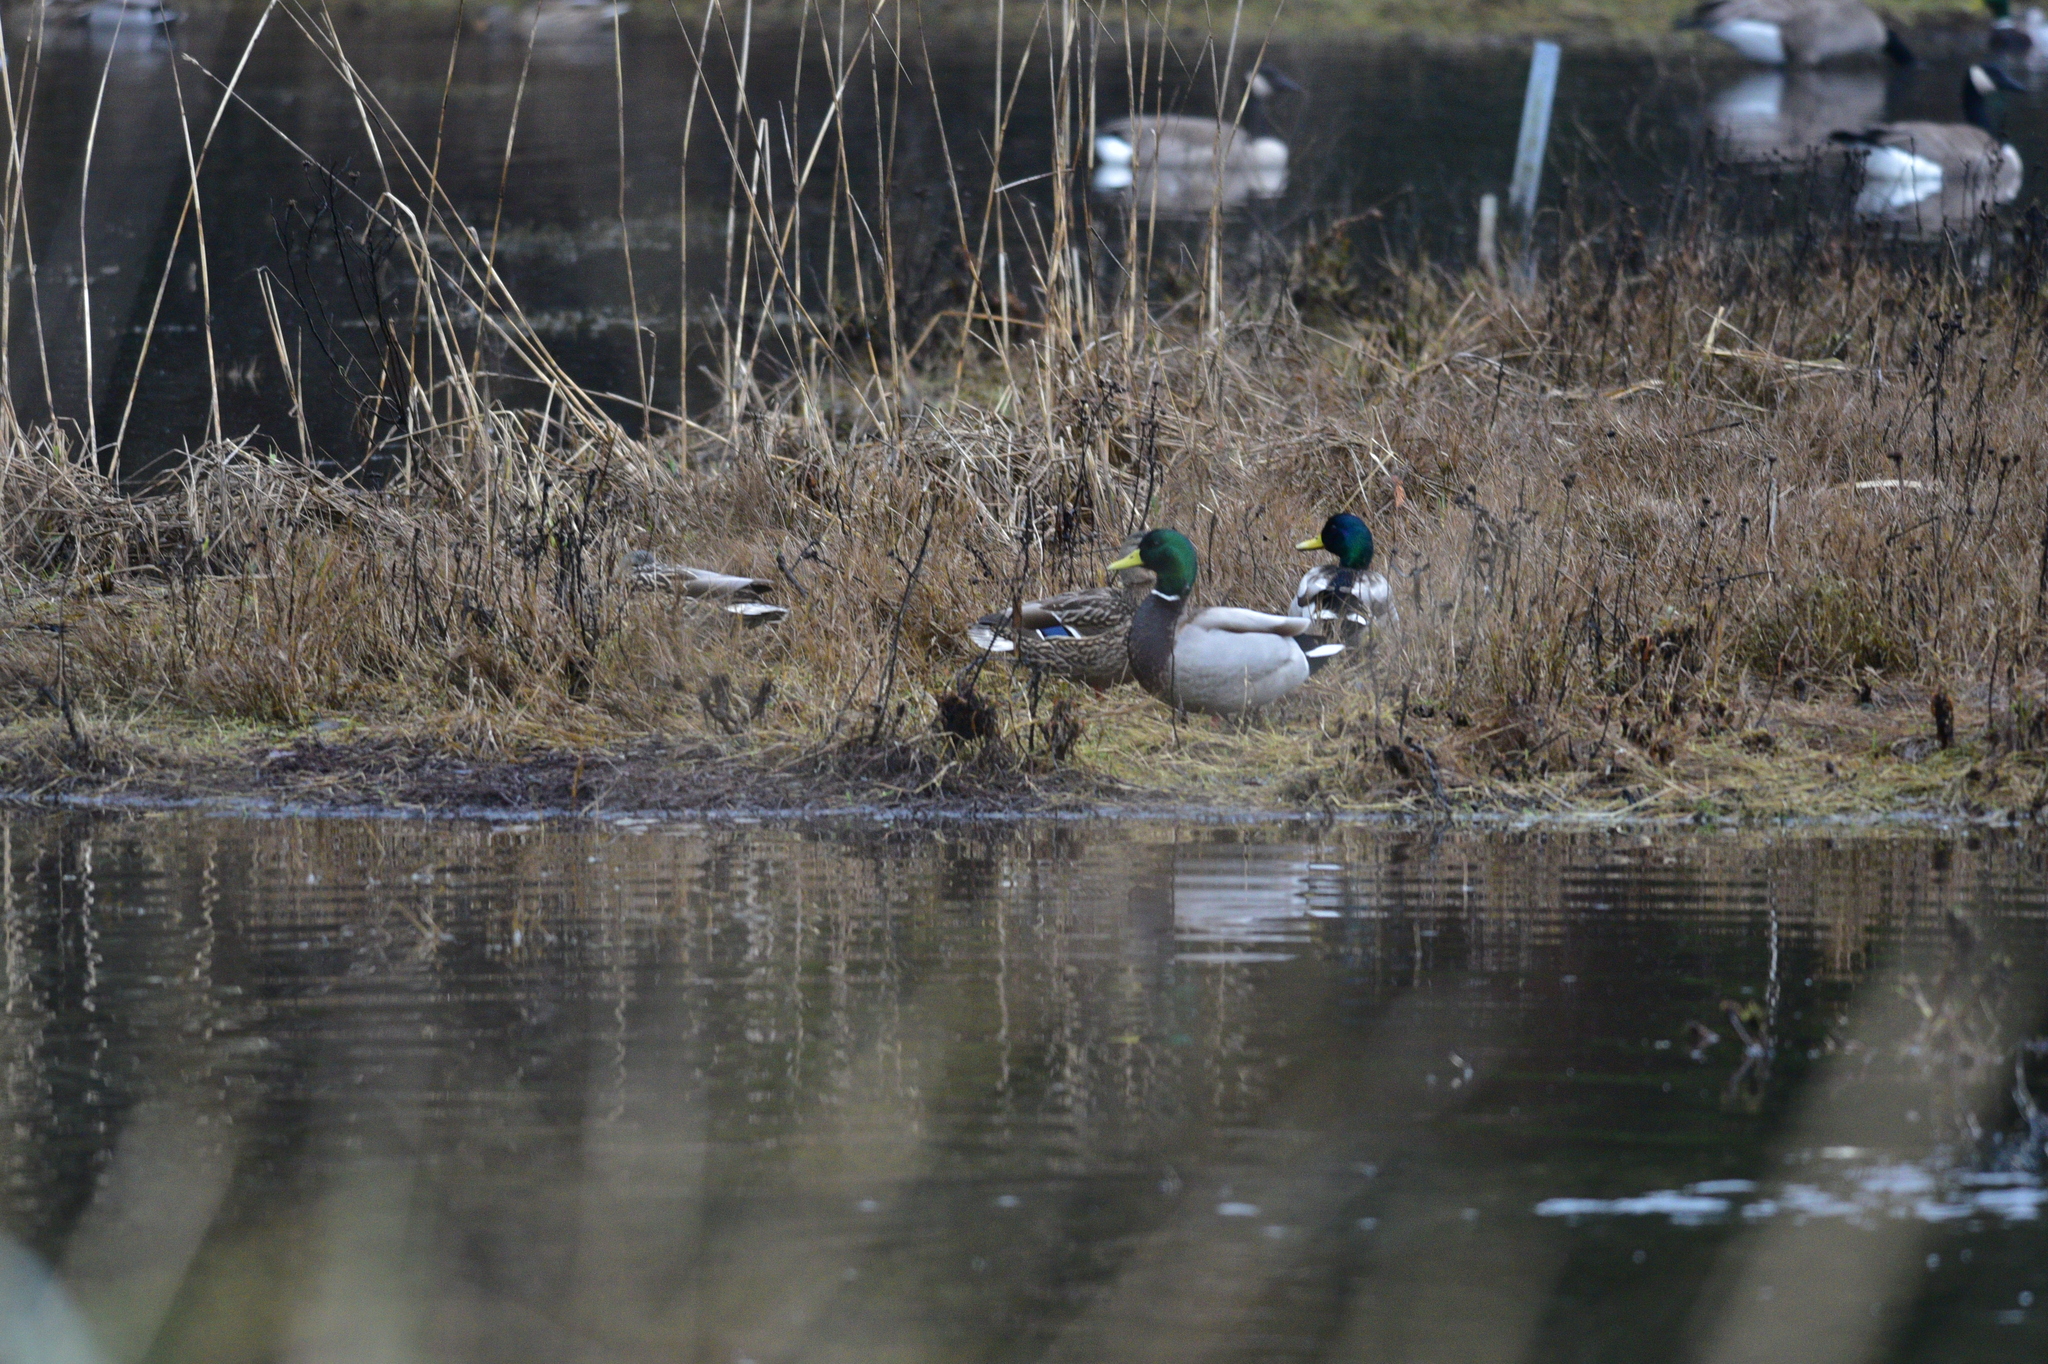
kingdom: Animalia
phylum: Chordata
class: Aves
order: Anseriformes
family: Anatidae
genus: Anas
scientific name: Anas platyrhynchos
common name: Mallard
